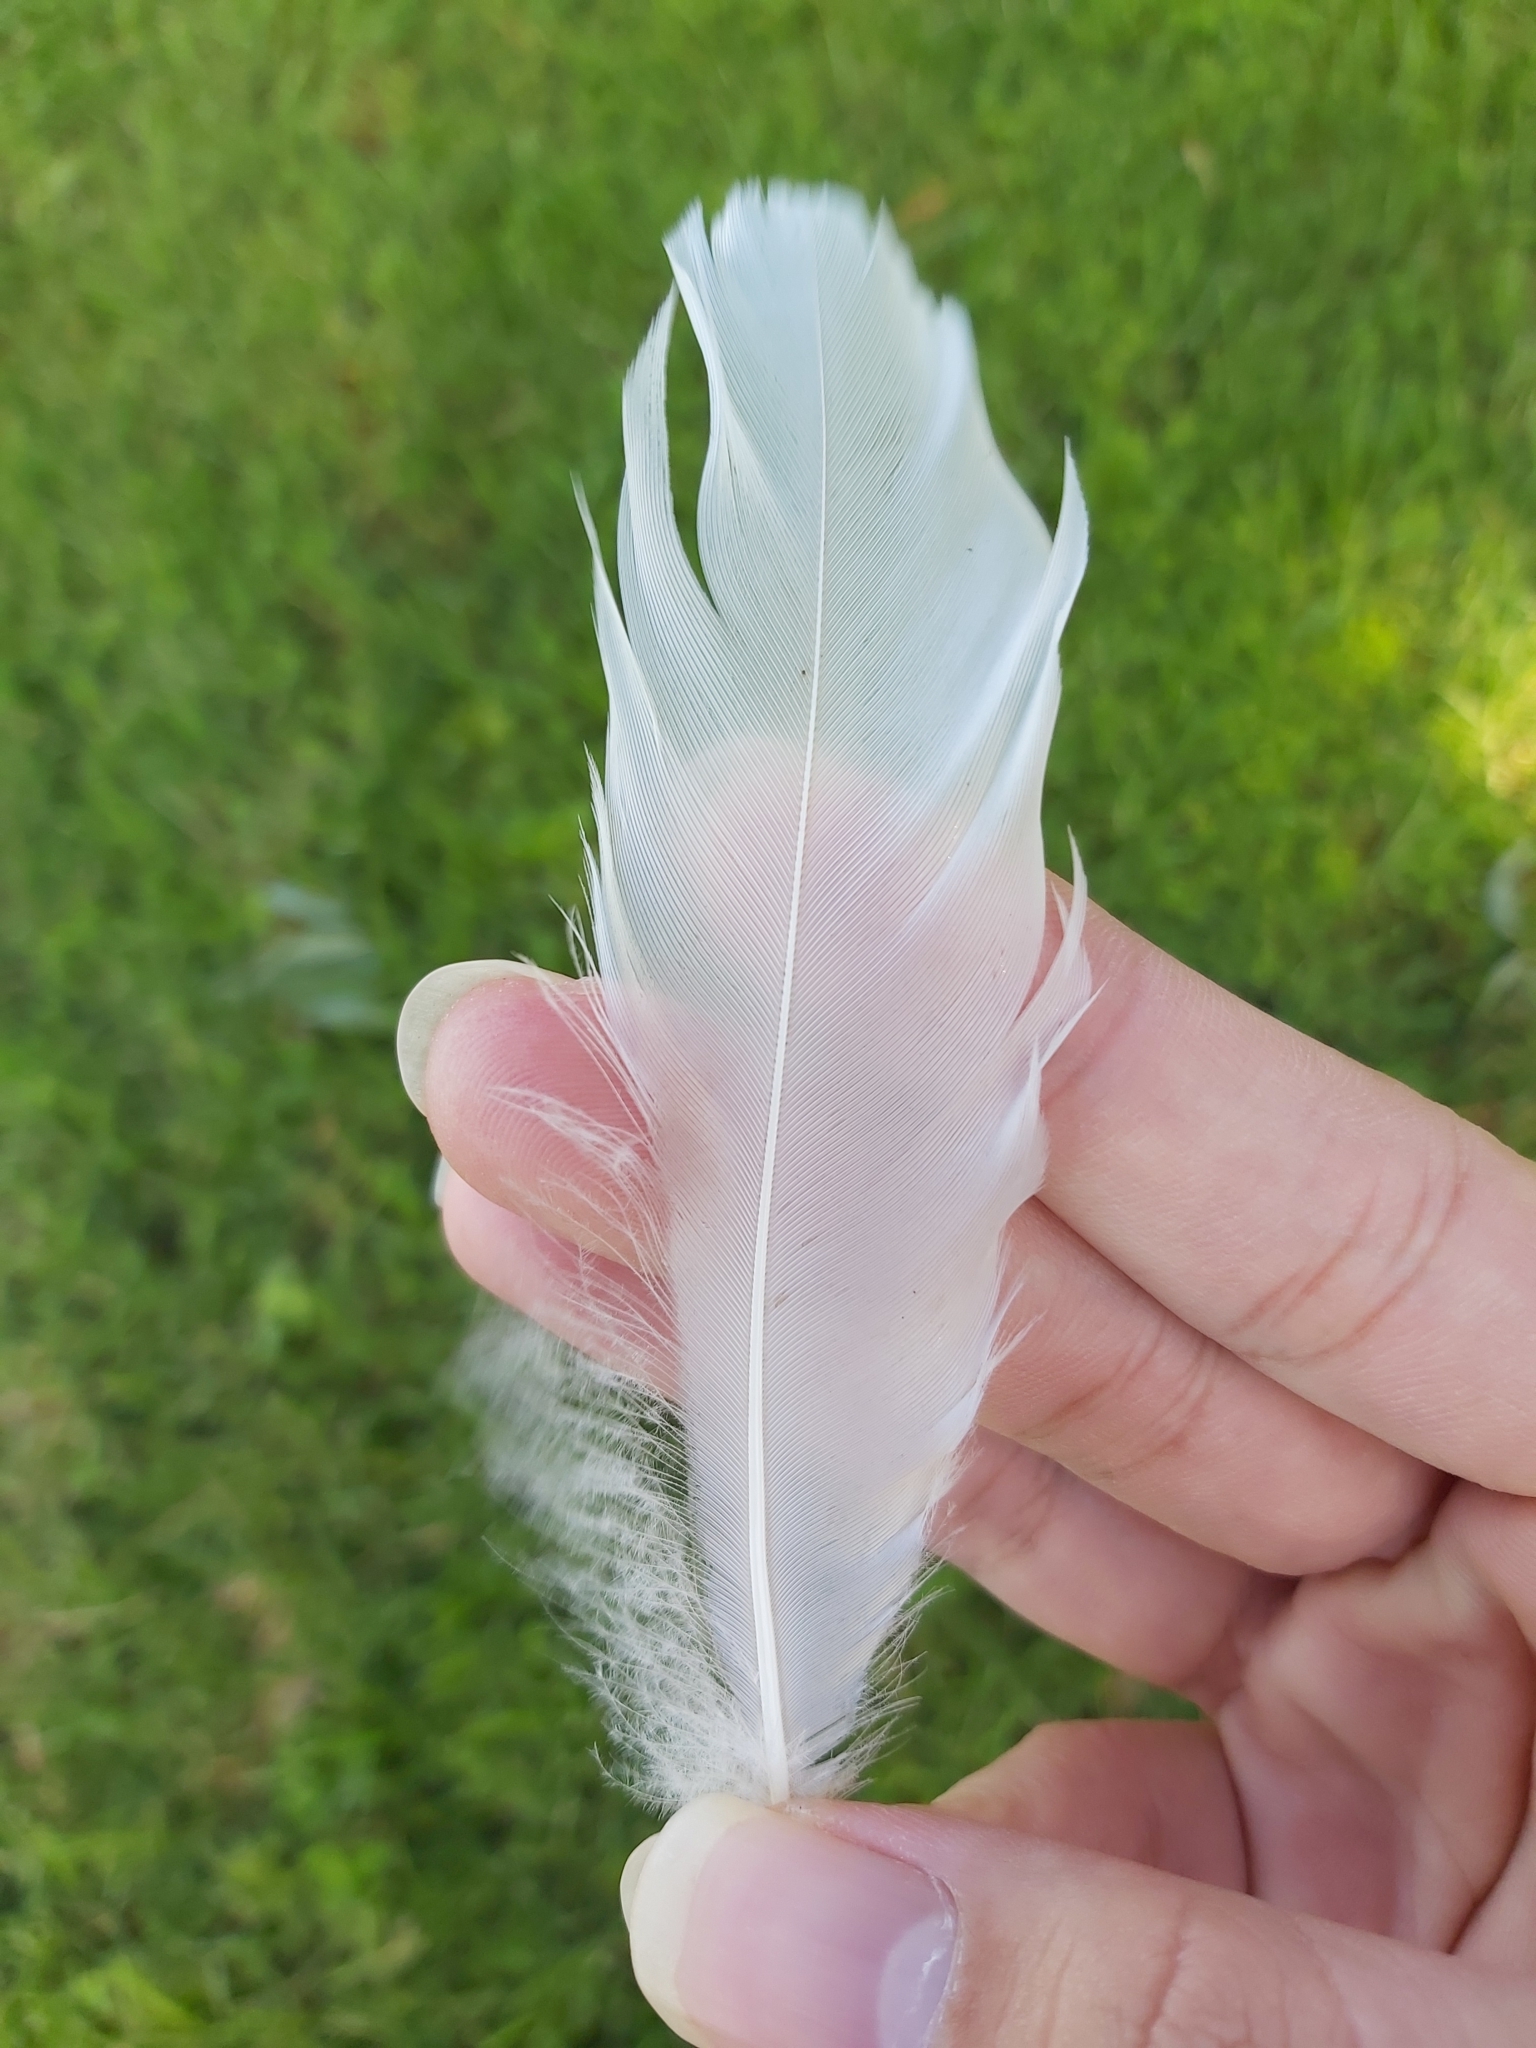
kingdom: Animalia
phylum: Chordata
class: Aves
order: Pelecaniformes
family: Threskiornithidae
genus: Threskiornis
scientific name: Threskiornis molucca
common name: Australian white ibis
